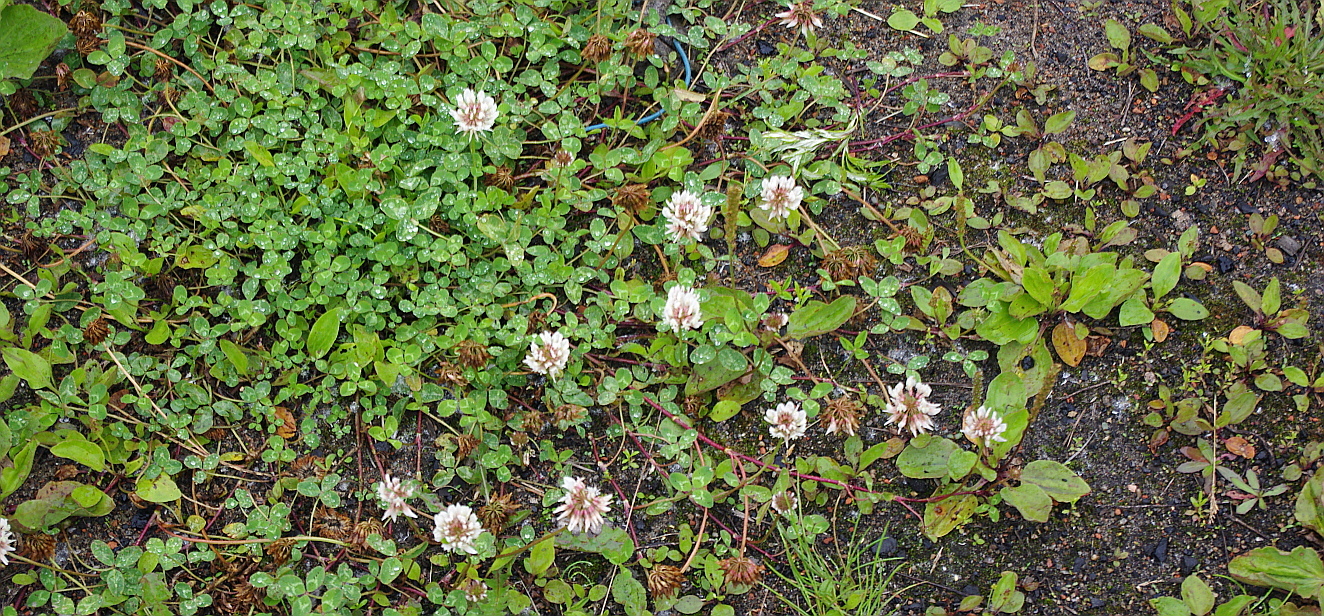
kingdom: Plantae
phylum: Tracheophyta
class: Magnoliopsida
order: Fabales
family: Fabaceae
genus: Trifolium
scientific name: Trifolium repens
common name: White clover
